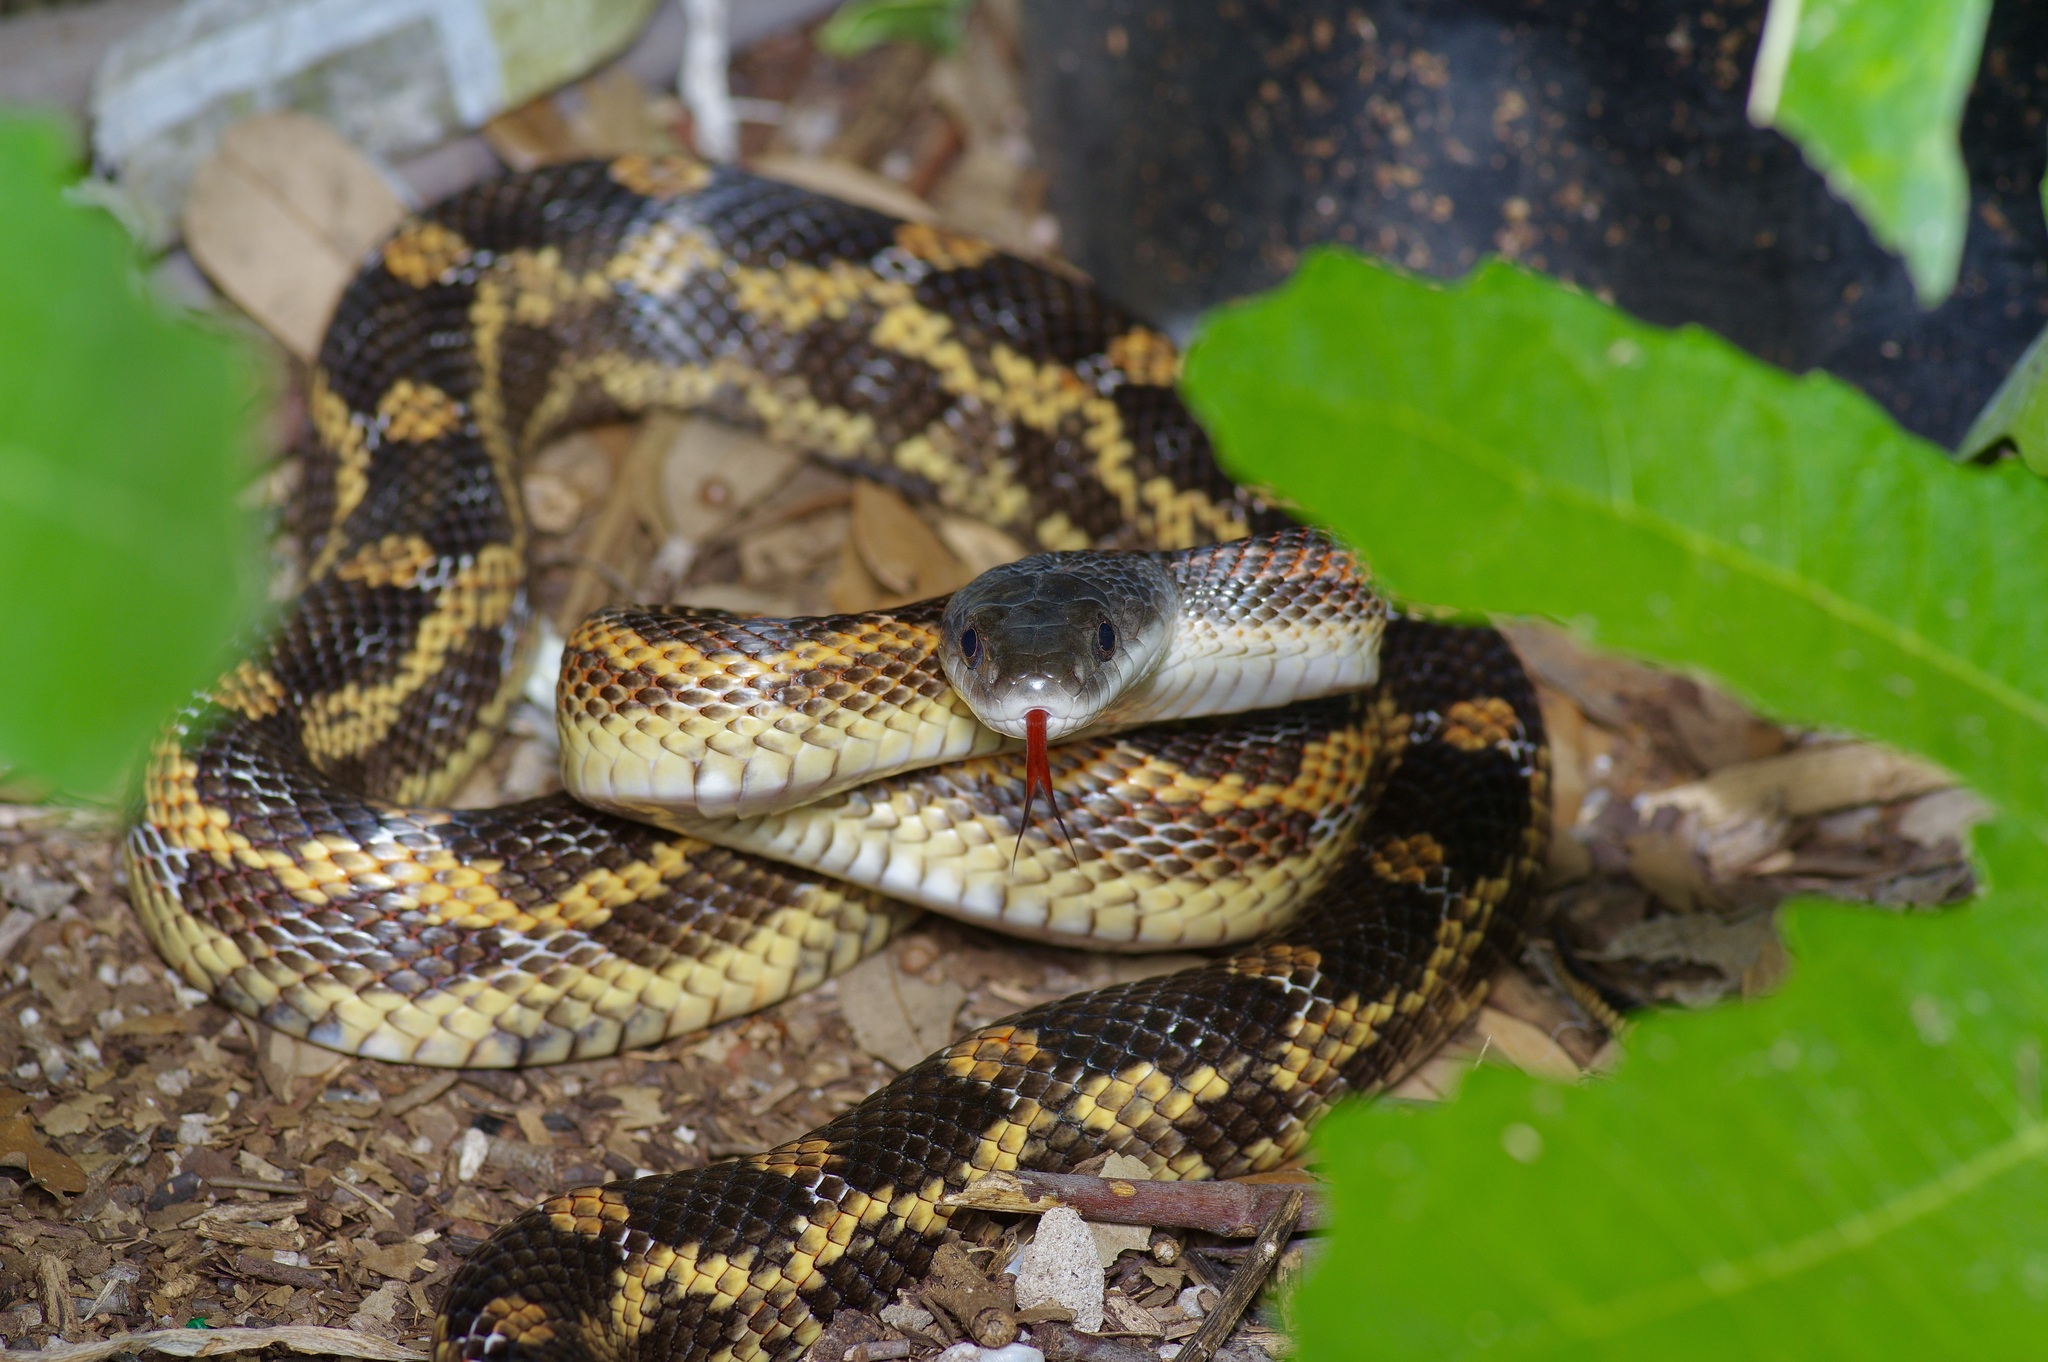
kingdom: Animalia
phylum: Chordata
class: Squamata
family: Colubridae
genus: Pantherophis
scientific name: Pantherophis obsoletus
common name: Black rat snake
